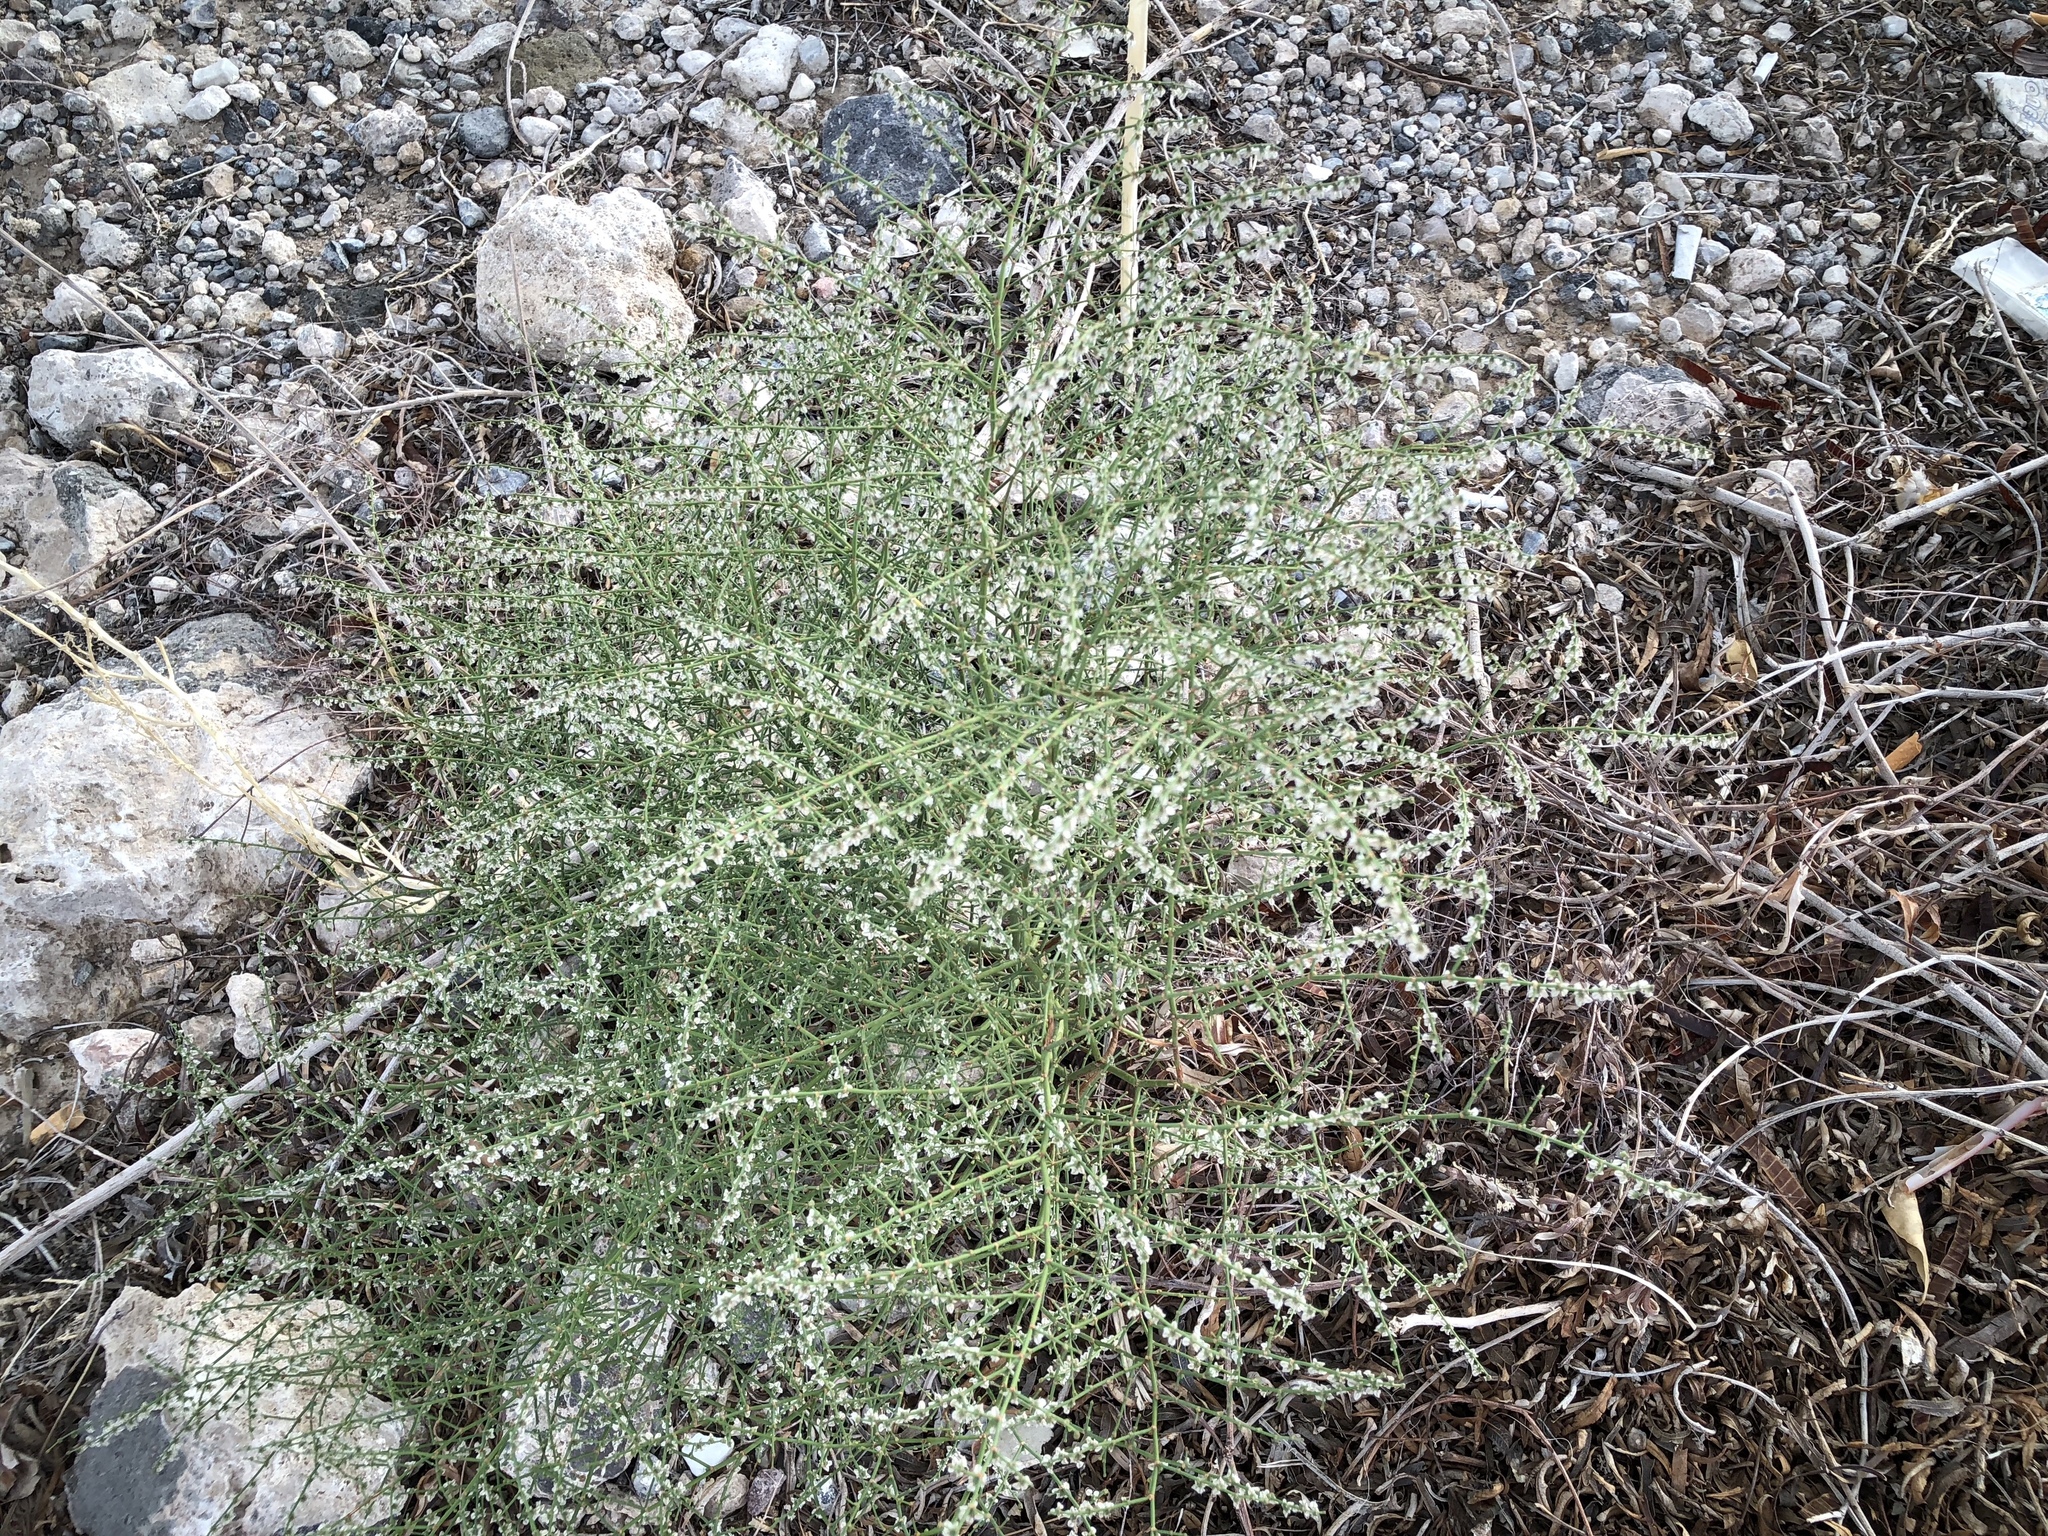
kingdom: Plantae
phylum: Tracheophyta
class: Magnoliopsida
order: Caryophyllales
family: Polygonaceae
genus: Eriogonum
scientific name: Eriogonum deflexum
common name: Skeleton-weed
